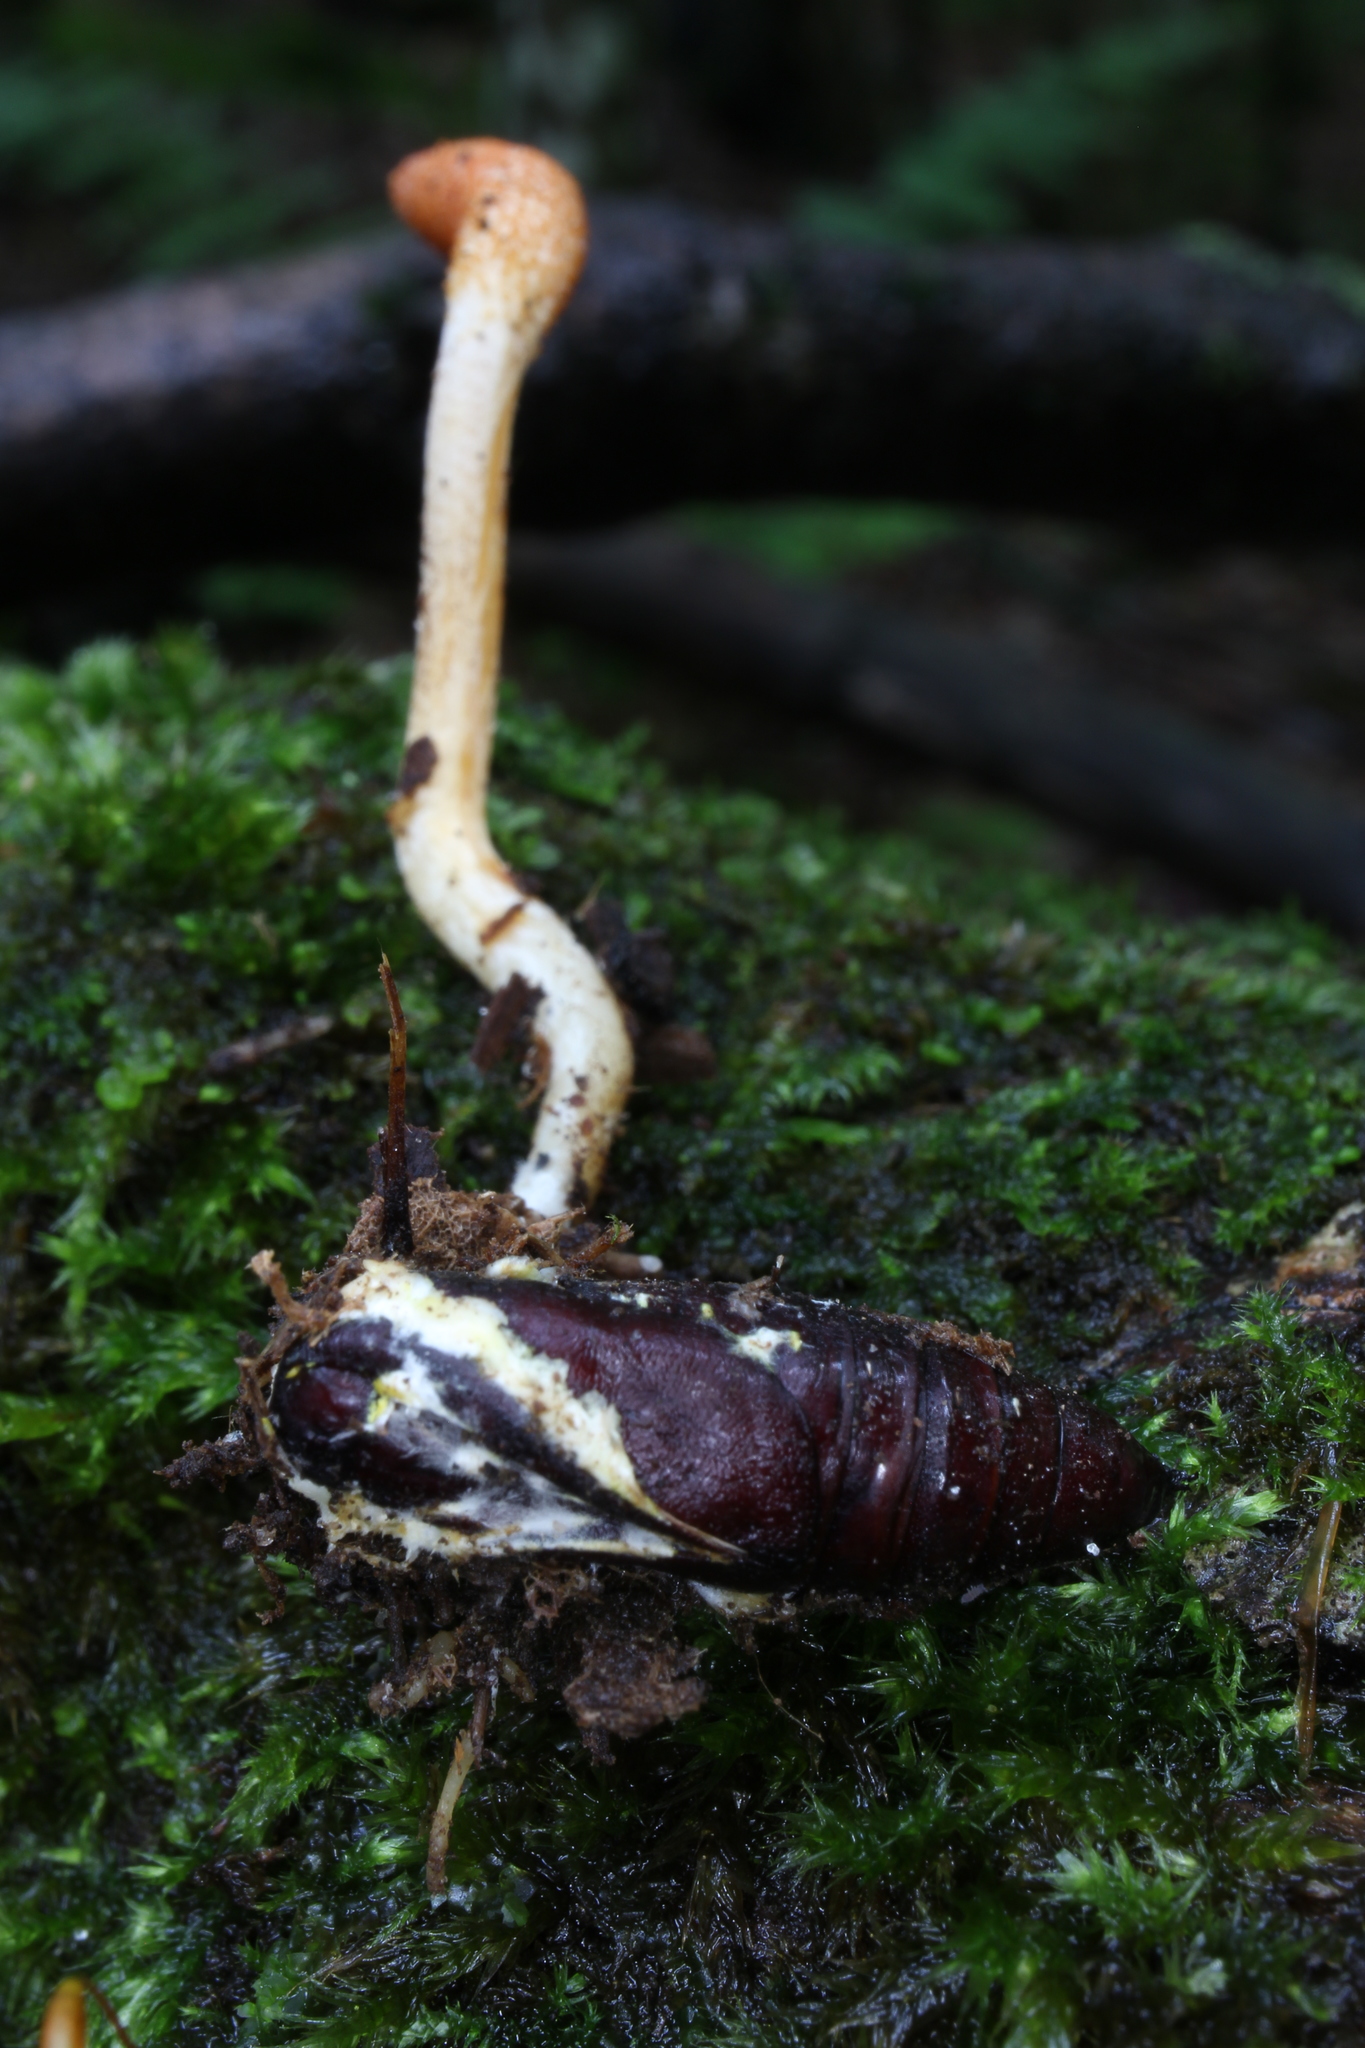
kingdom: Fungi
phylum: Ascomycota
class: Sordariomycetes
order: Hypocreales
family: Cordycipitaceae
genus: Cordyceps
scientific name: Cordyceps militaris
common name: Scarlet caterpillar fungus
